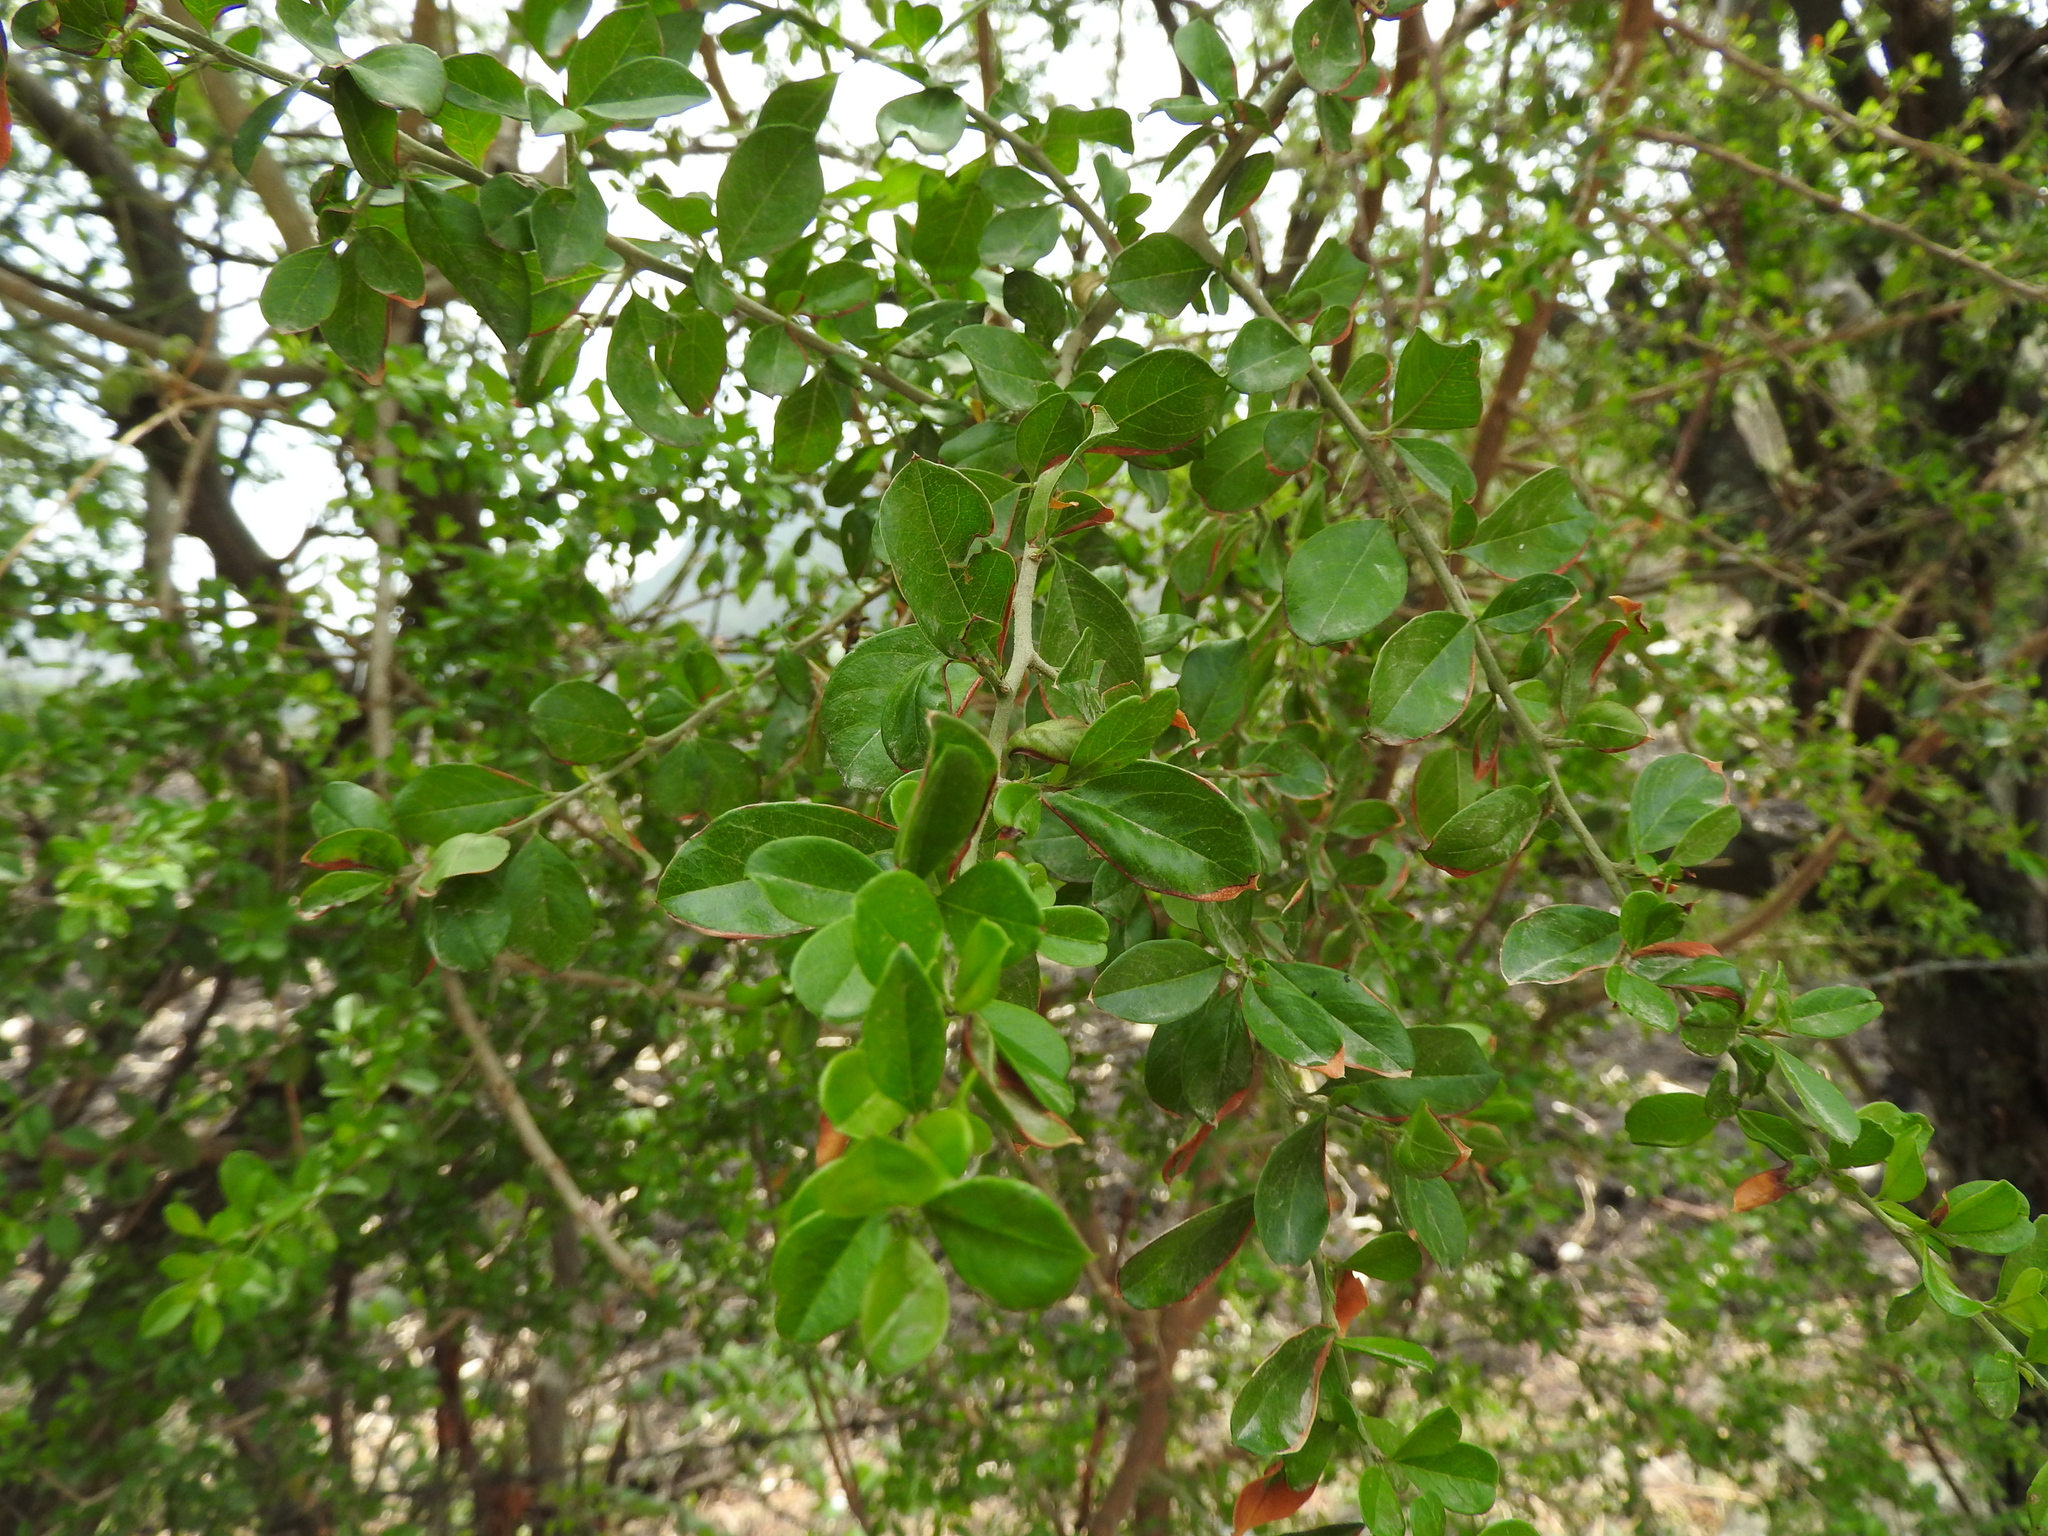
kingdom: Plantae
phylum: Tracheophyta
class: Magnoliopsida
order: Rosales
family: Rhamnaceae
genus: Condalia
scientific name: Condalia velutina
